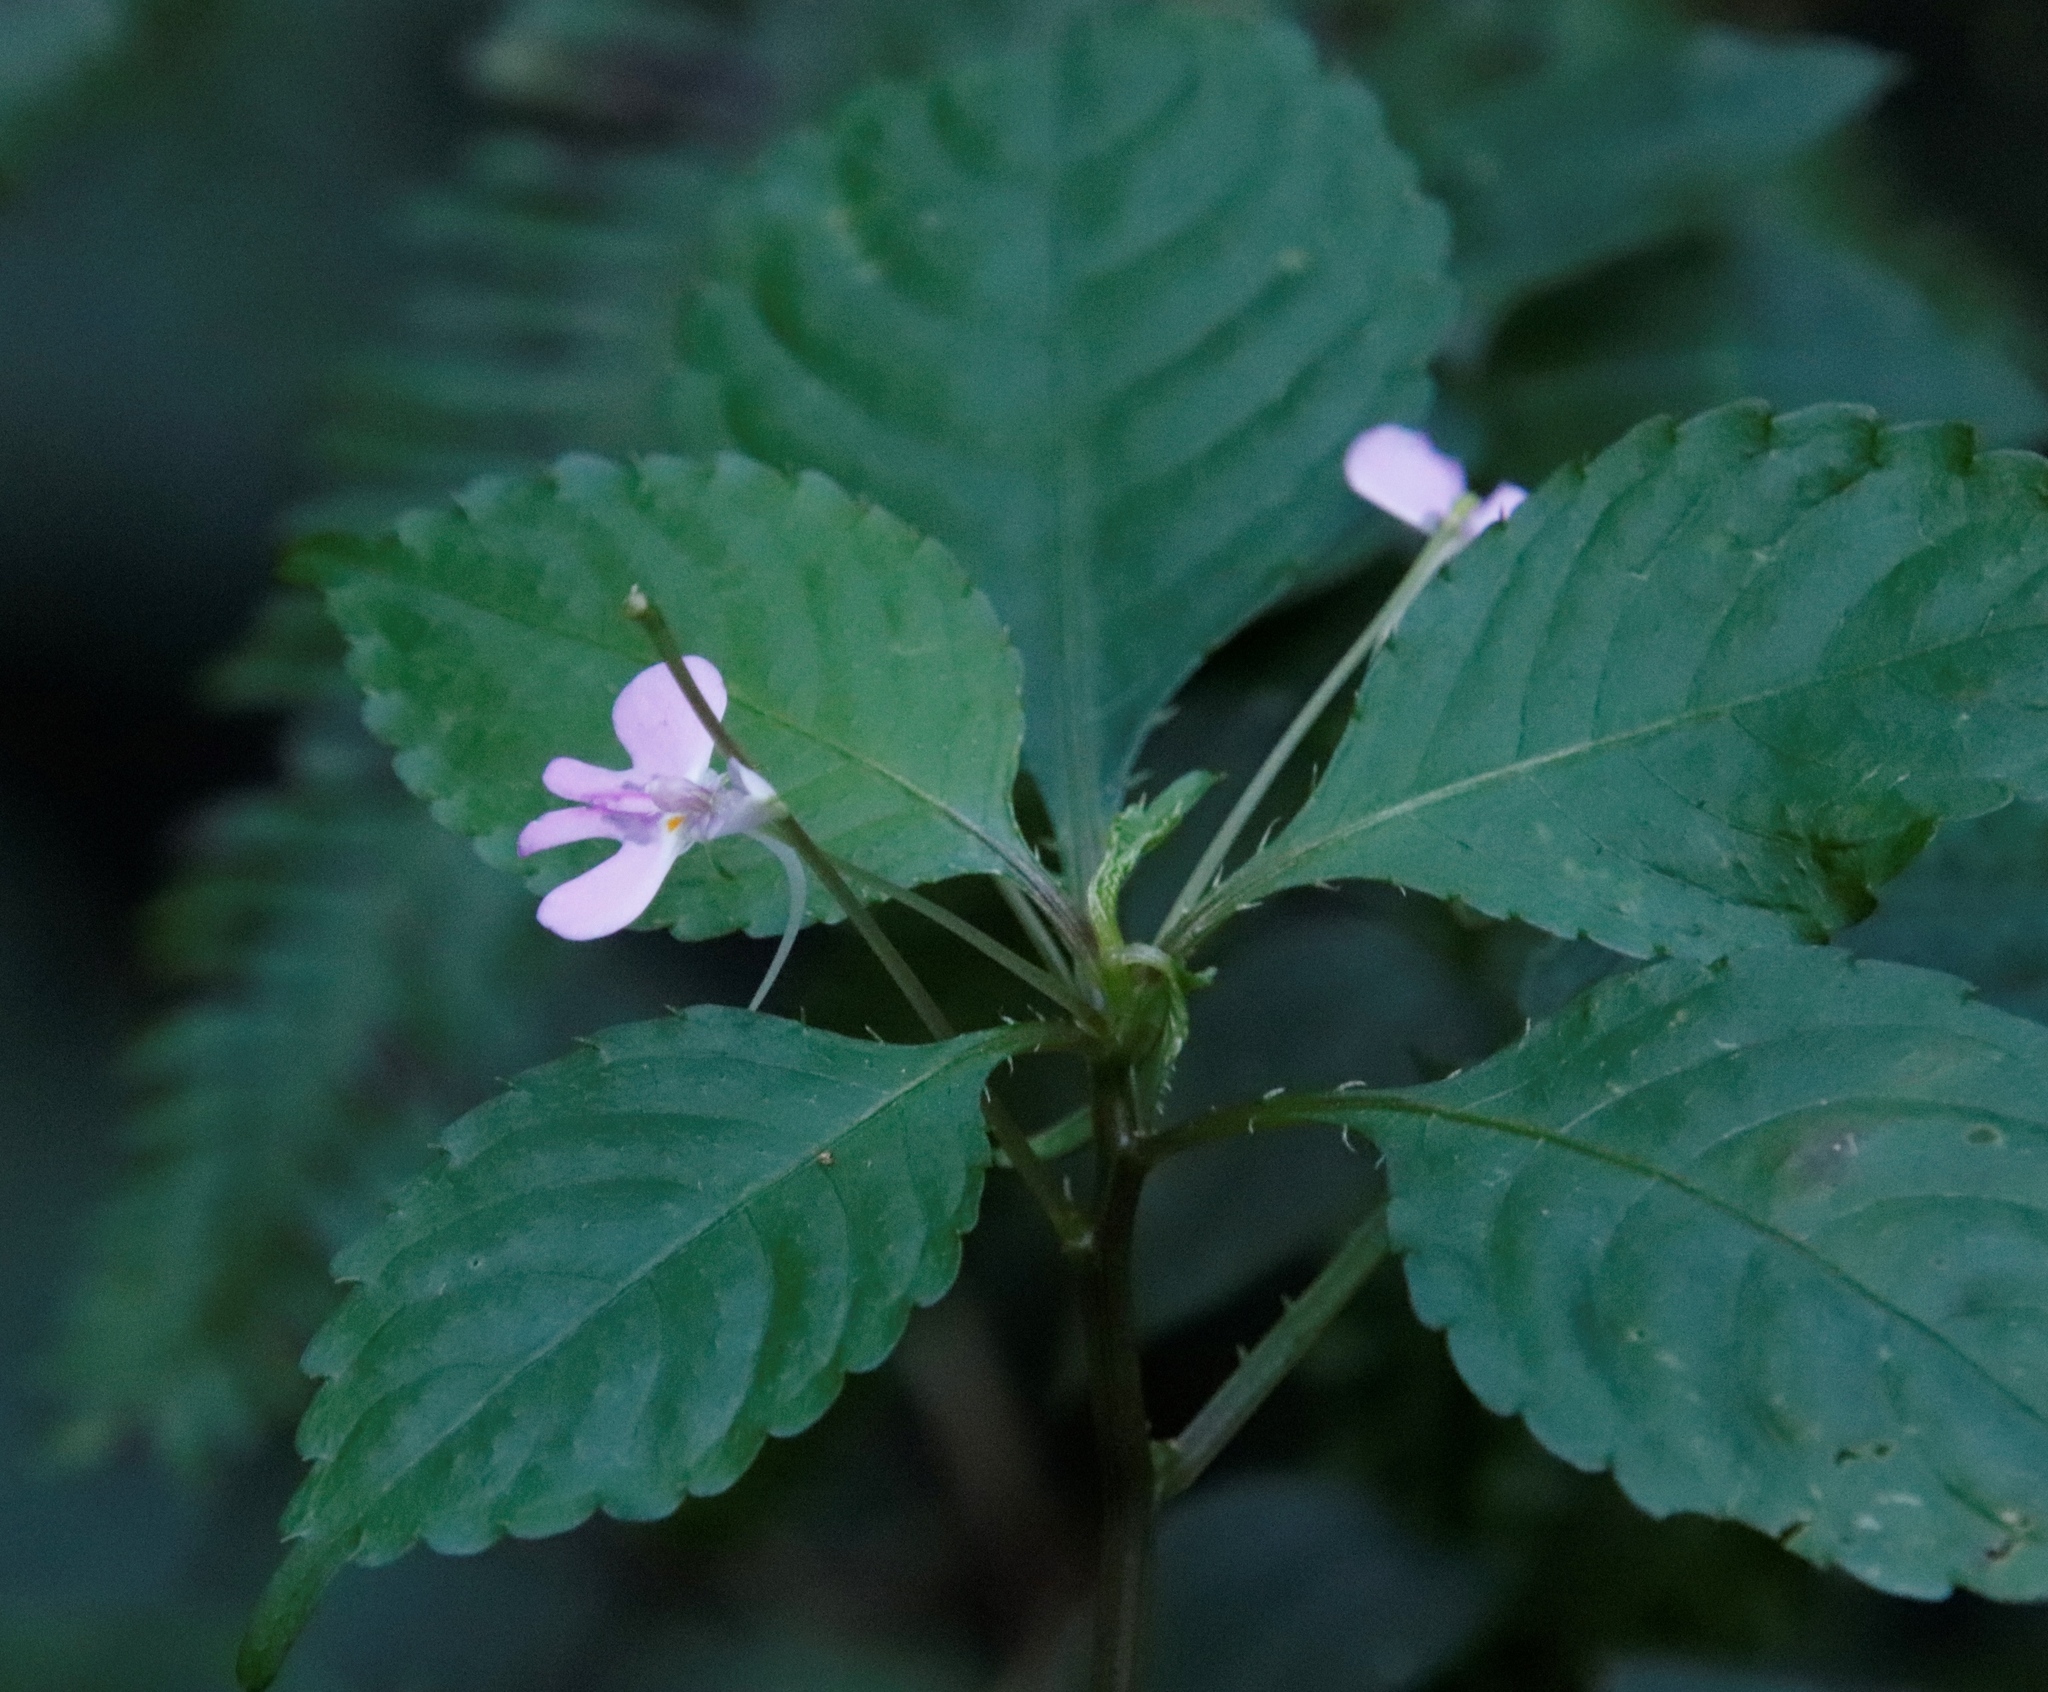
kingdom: Plantae
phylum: Tracheophyta
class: Magnoliopsida
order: Ericales
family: Balsaminaceae
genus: Impatiens
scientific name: Impatiens hochstetteri
